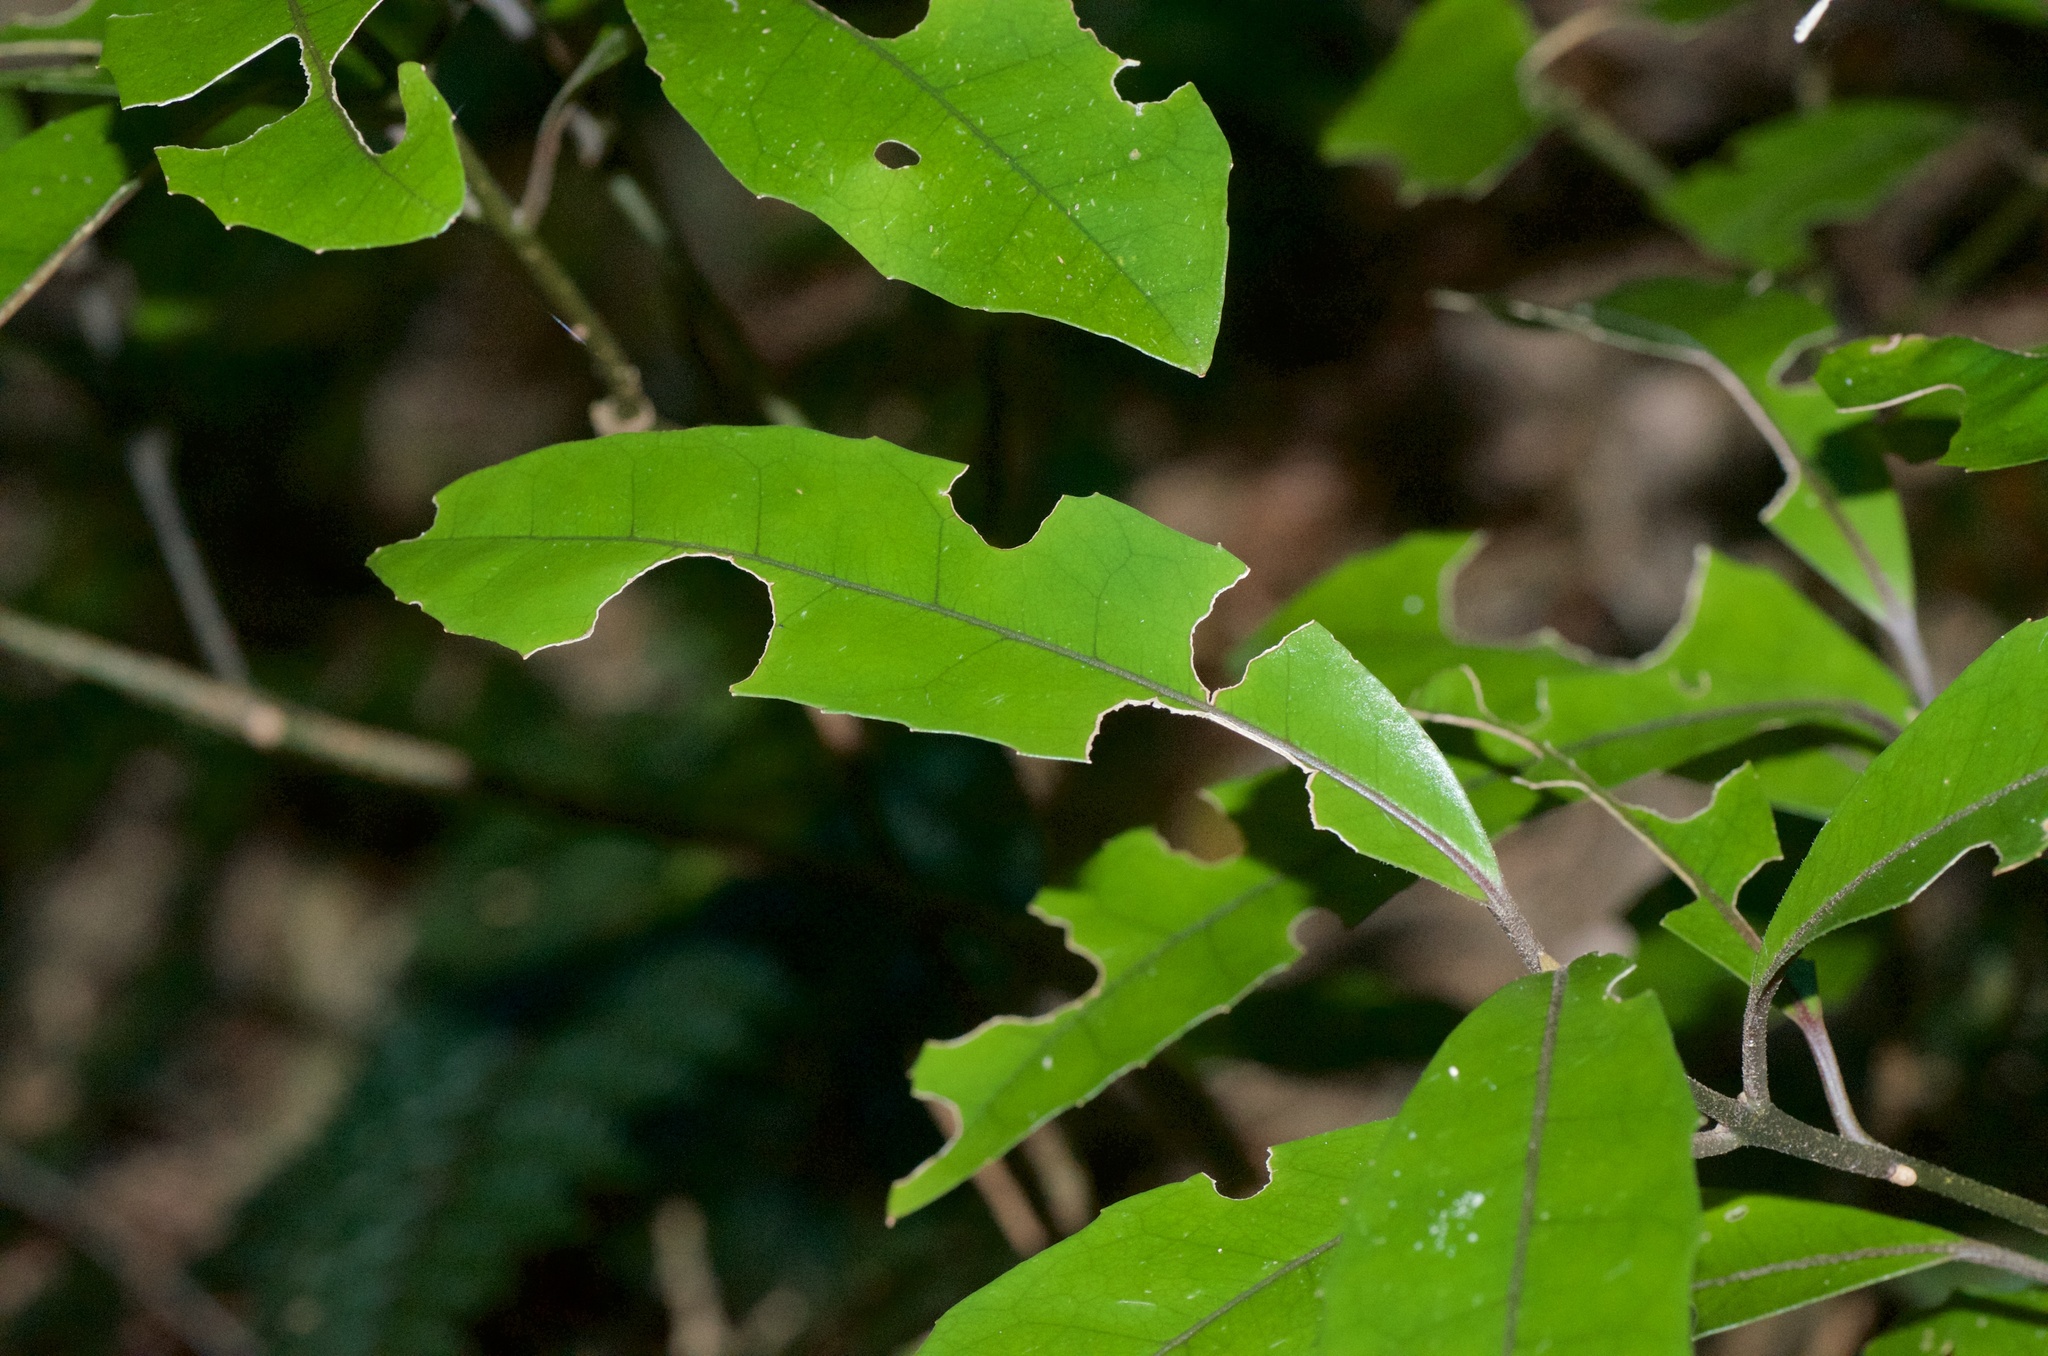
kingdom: Plantae
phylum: Tracheophyta
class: Magnoliopsida
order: Laurales
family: Monimiaceae
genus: Hedycarya
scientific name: Hedycarya arborea
